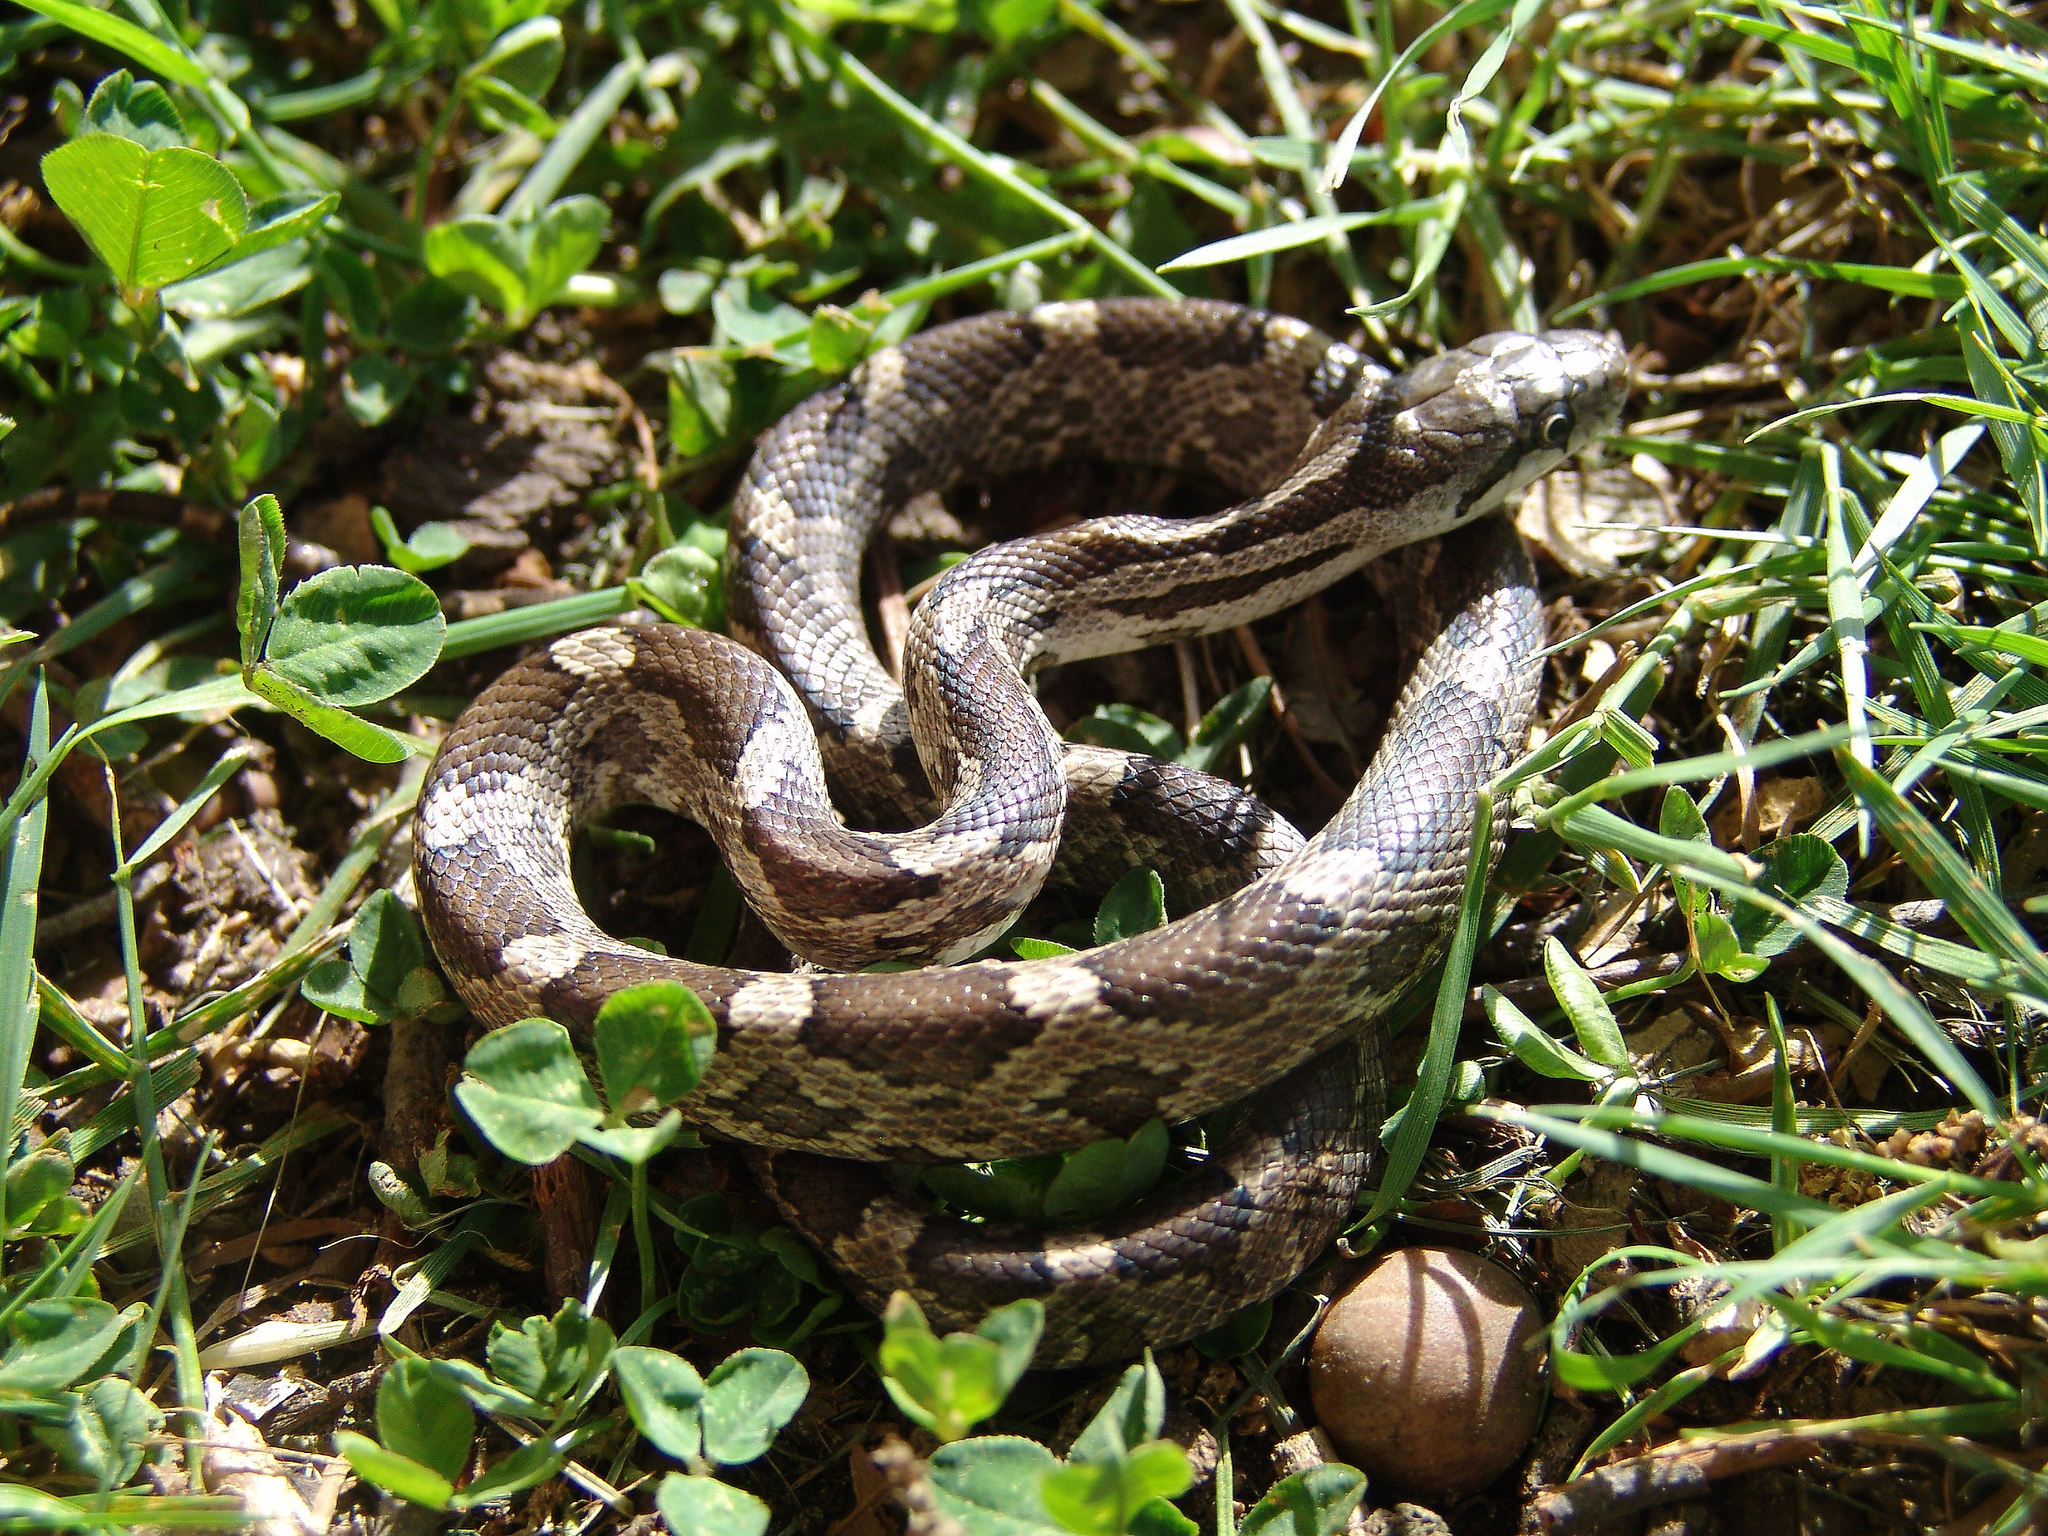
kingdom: Animalia
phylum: Chordata
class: Squamata
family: Colubridae
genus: Pantherophis
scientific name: Pantherophis obsoletus
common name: Black rat snake
